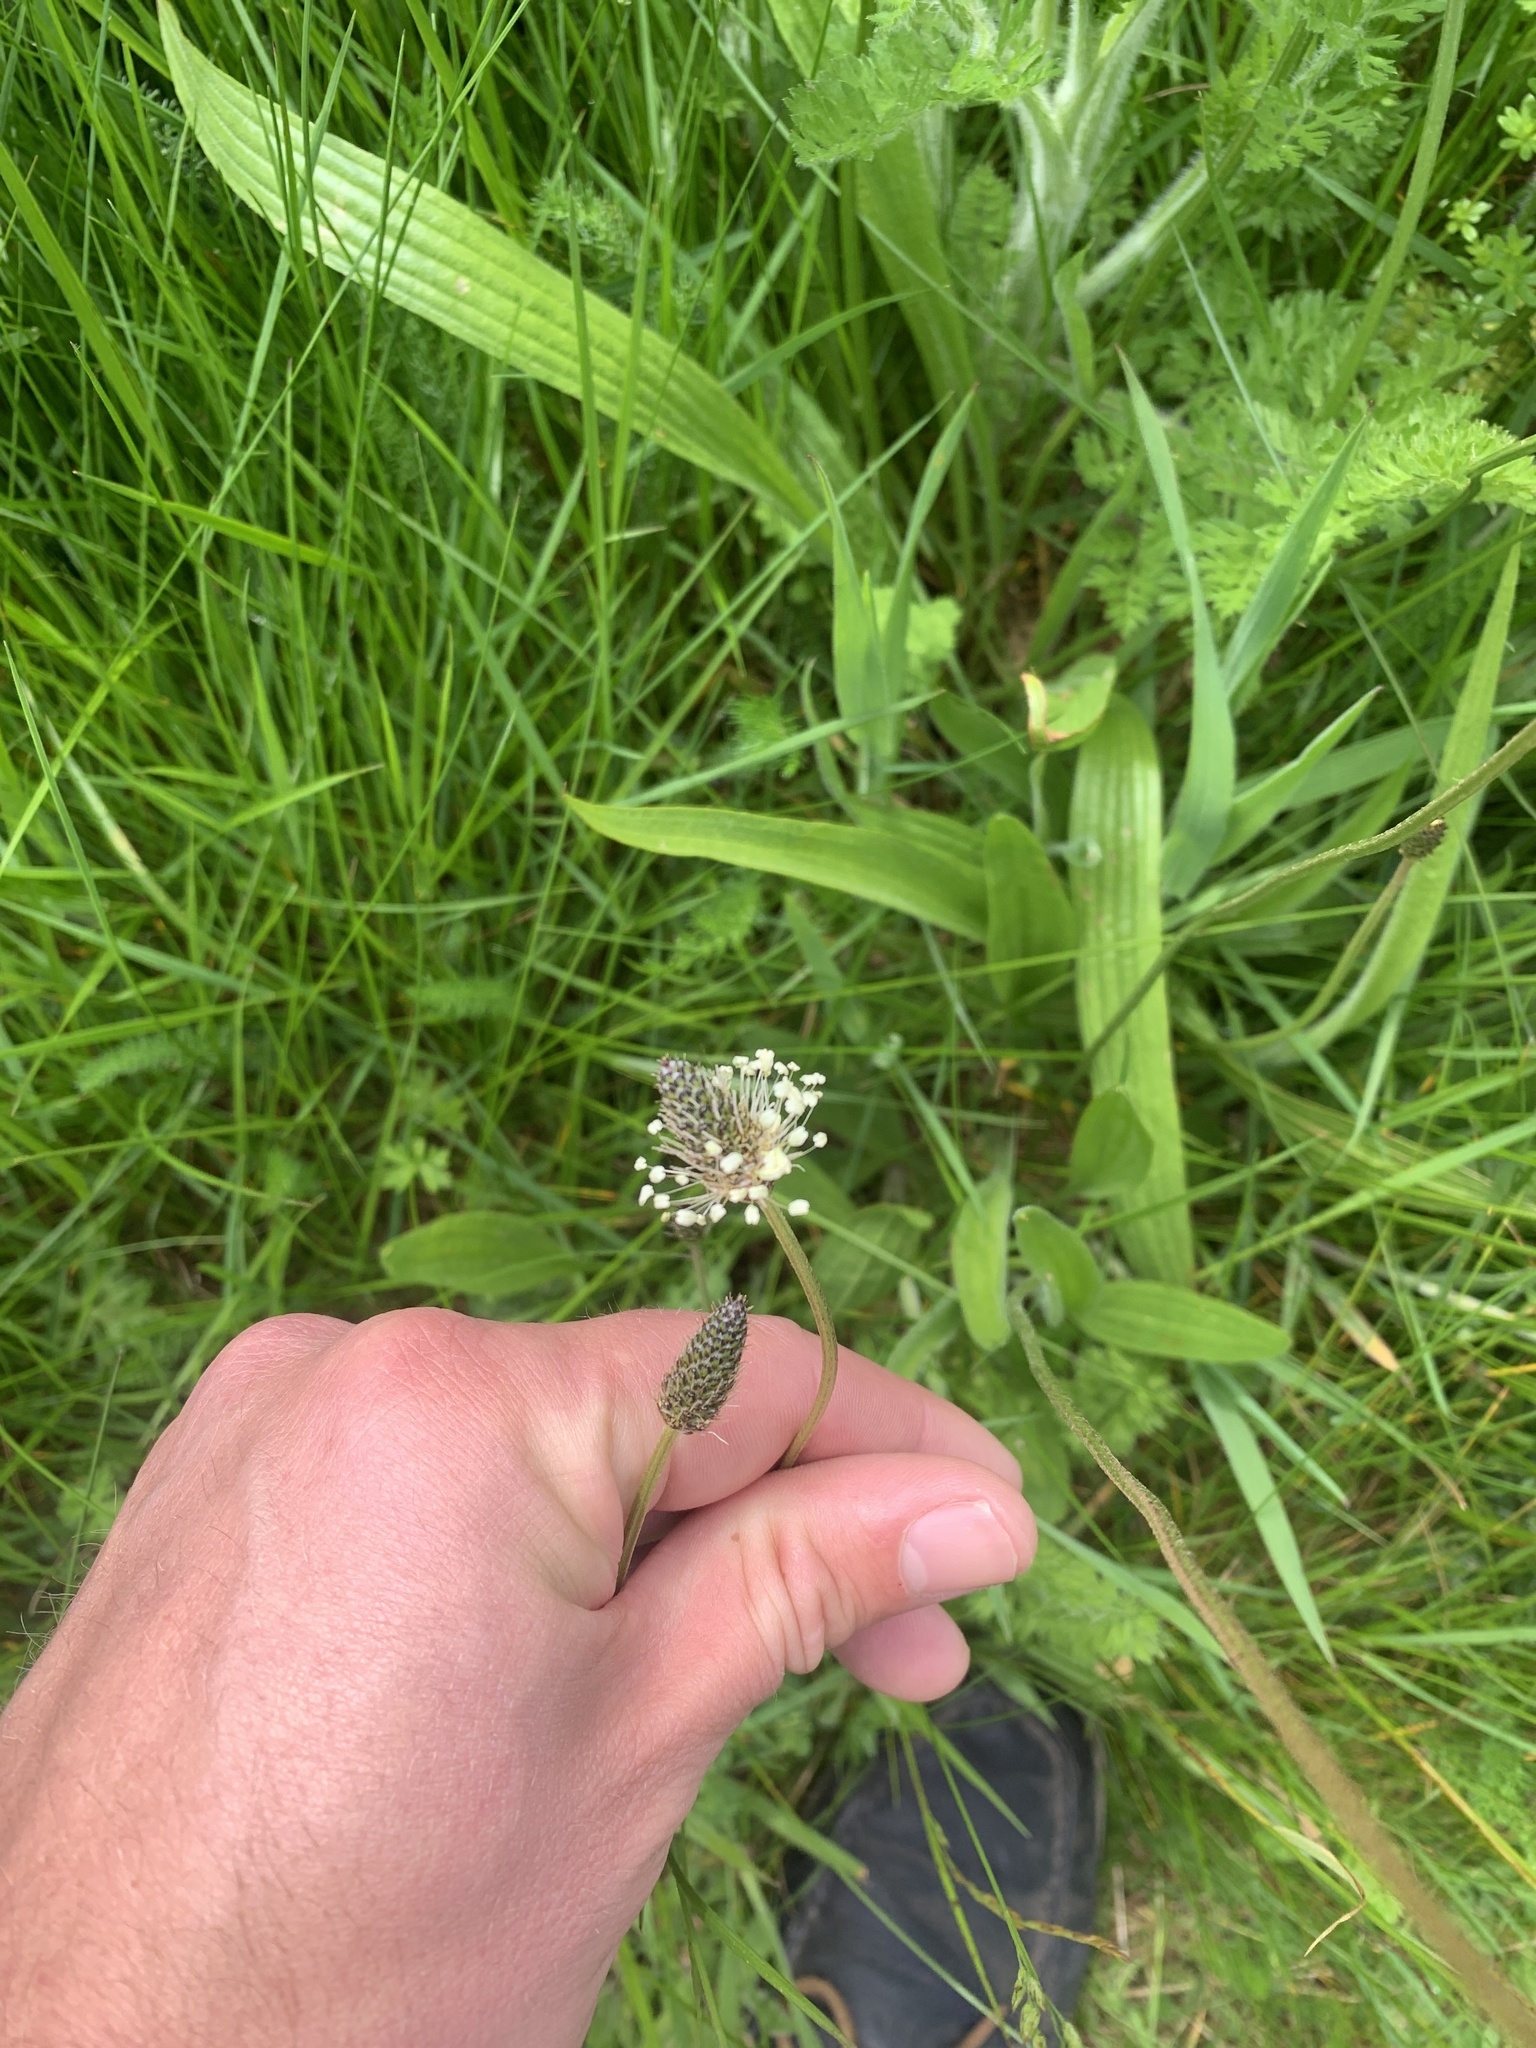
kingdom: Plantae
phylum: Tracheophyta
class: Magnoliopsida
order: Lamiales
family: Plantaginaceae
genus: Plantago
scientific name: Plantago lanceolata
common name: Ribwort plantain
